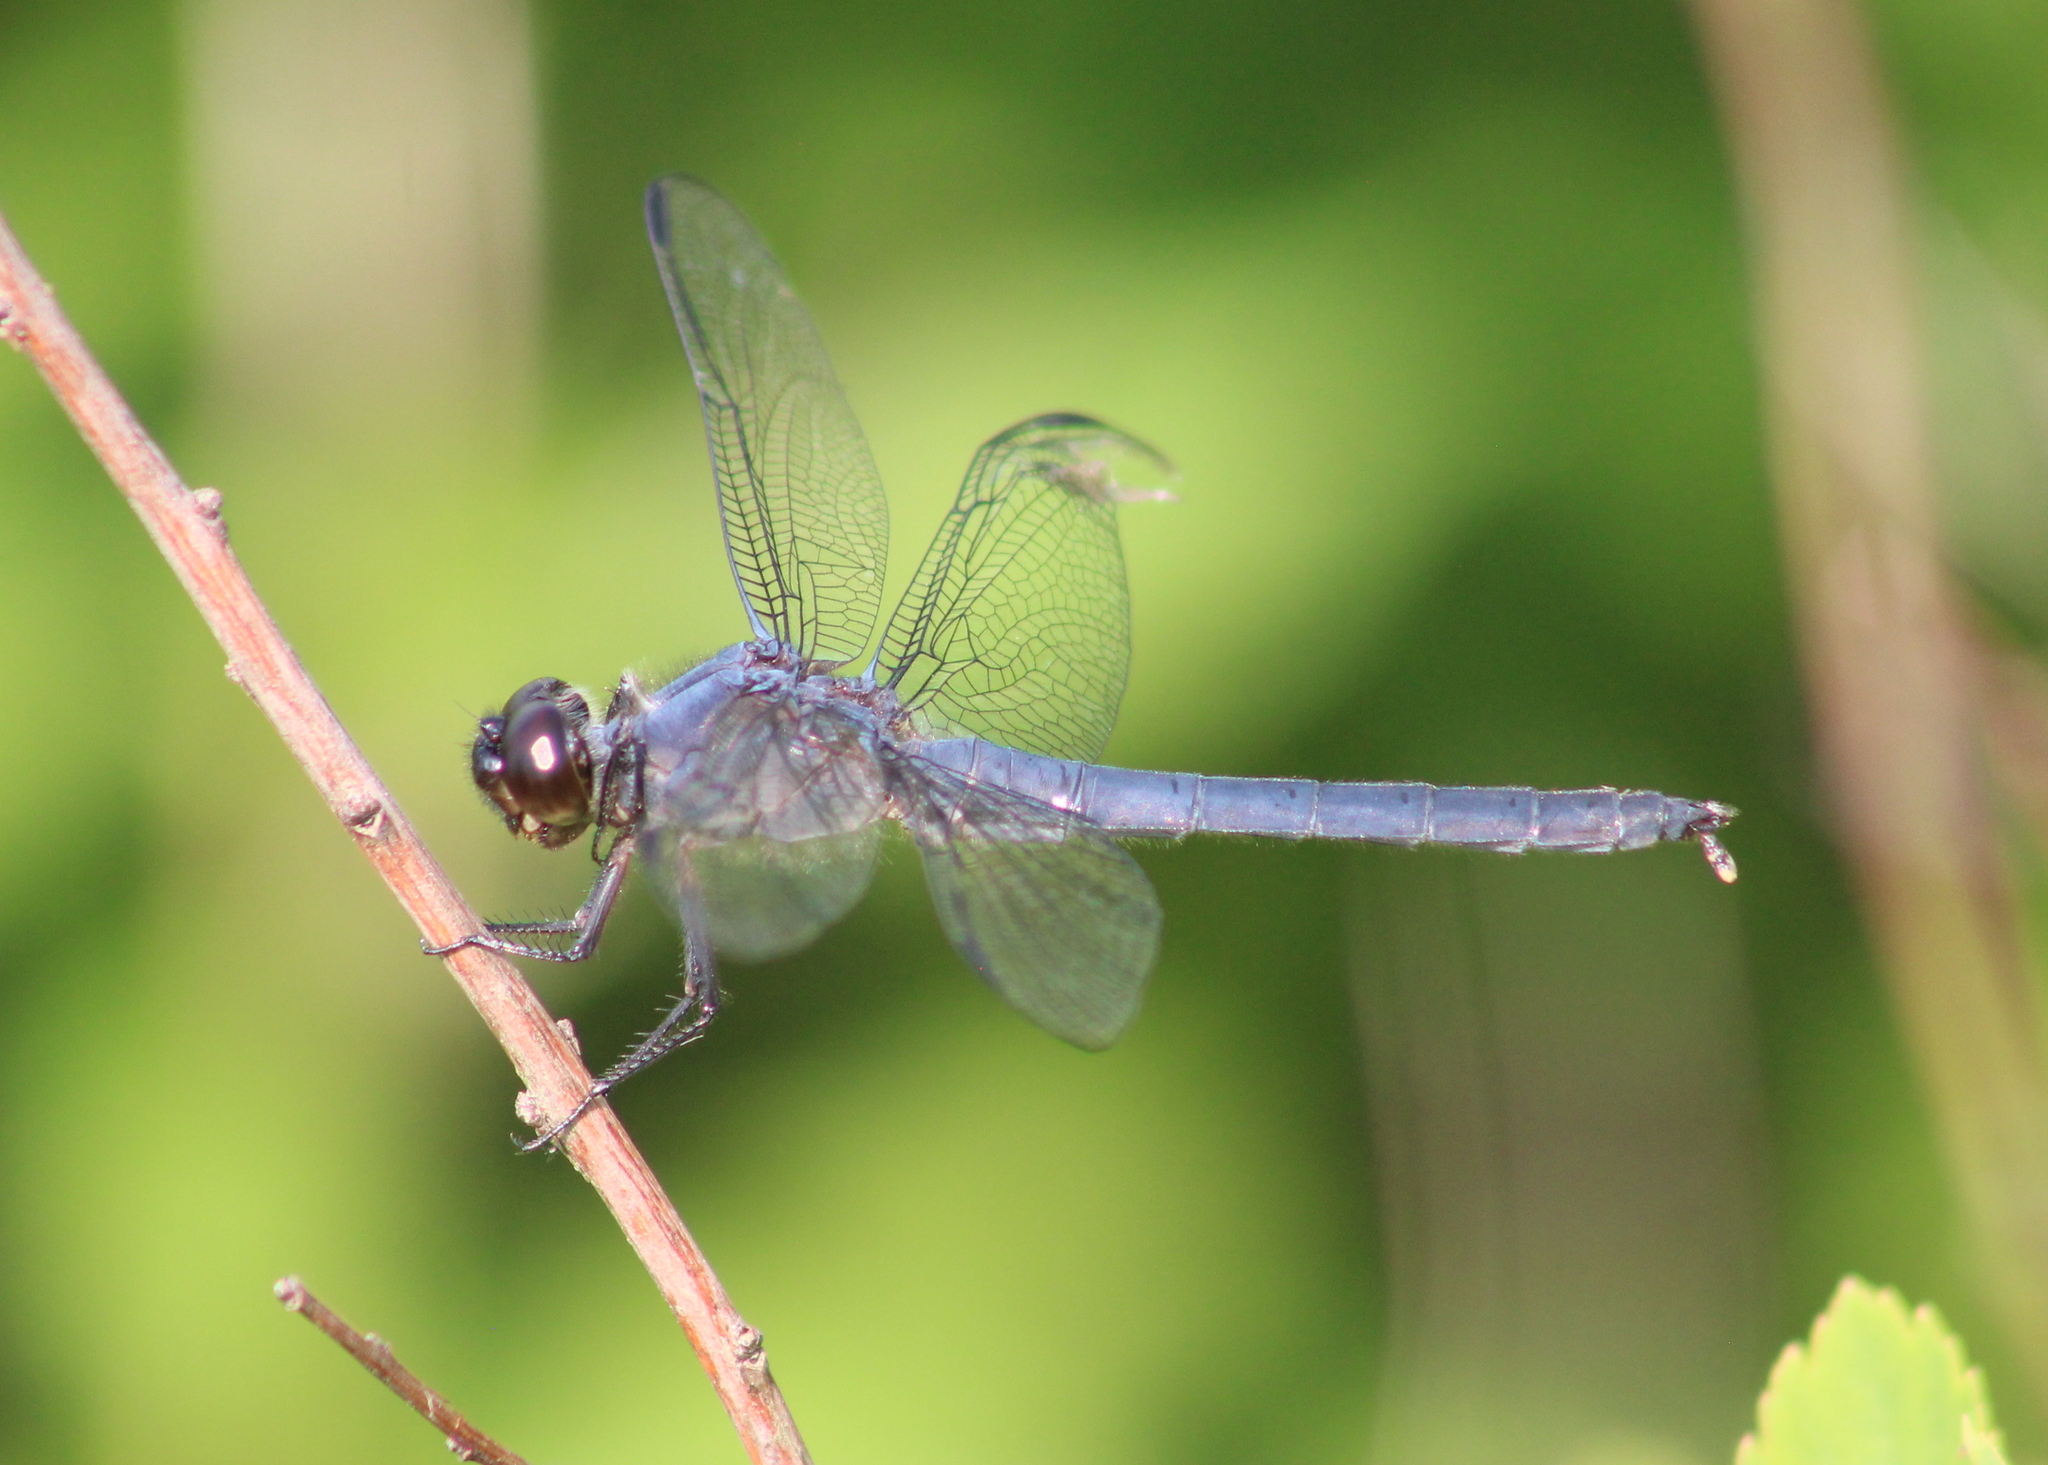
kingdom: Animalia
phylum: Arthropoda
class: Insecta
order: Odonata
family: Libellulidae
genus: Libellula
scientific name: Libellula incesta
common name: Slaty skimmer
